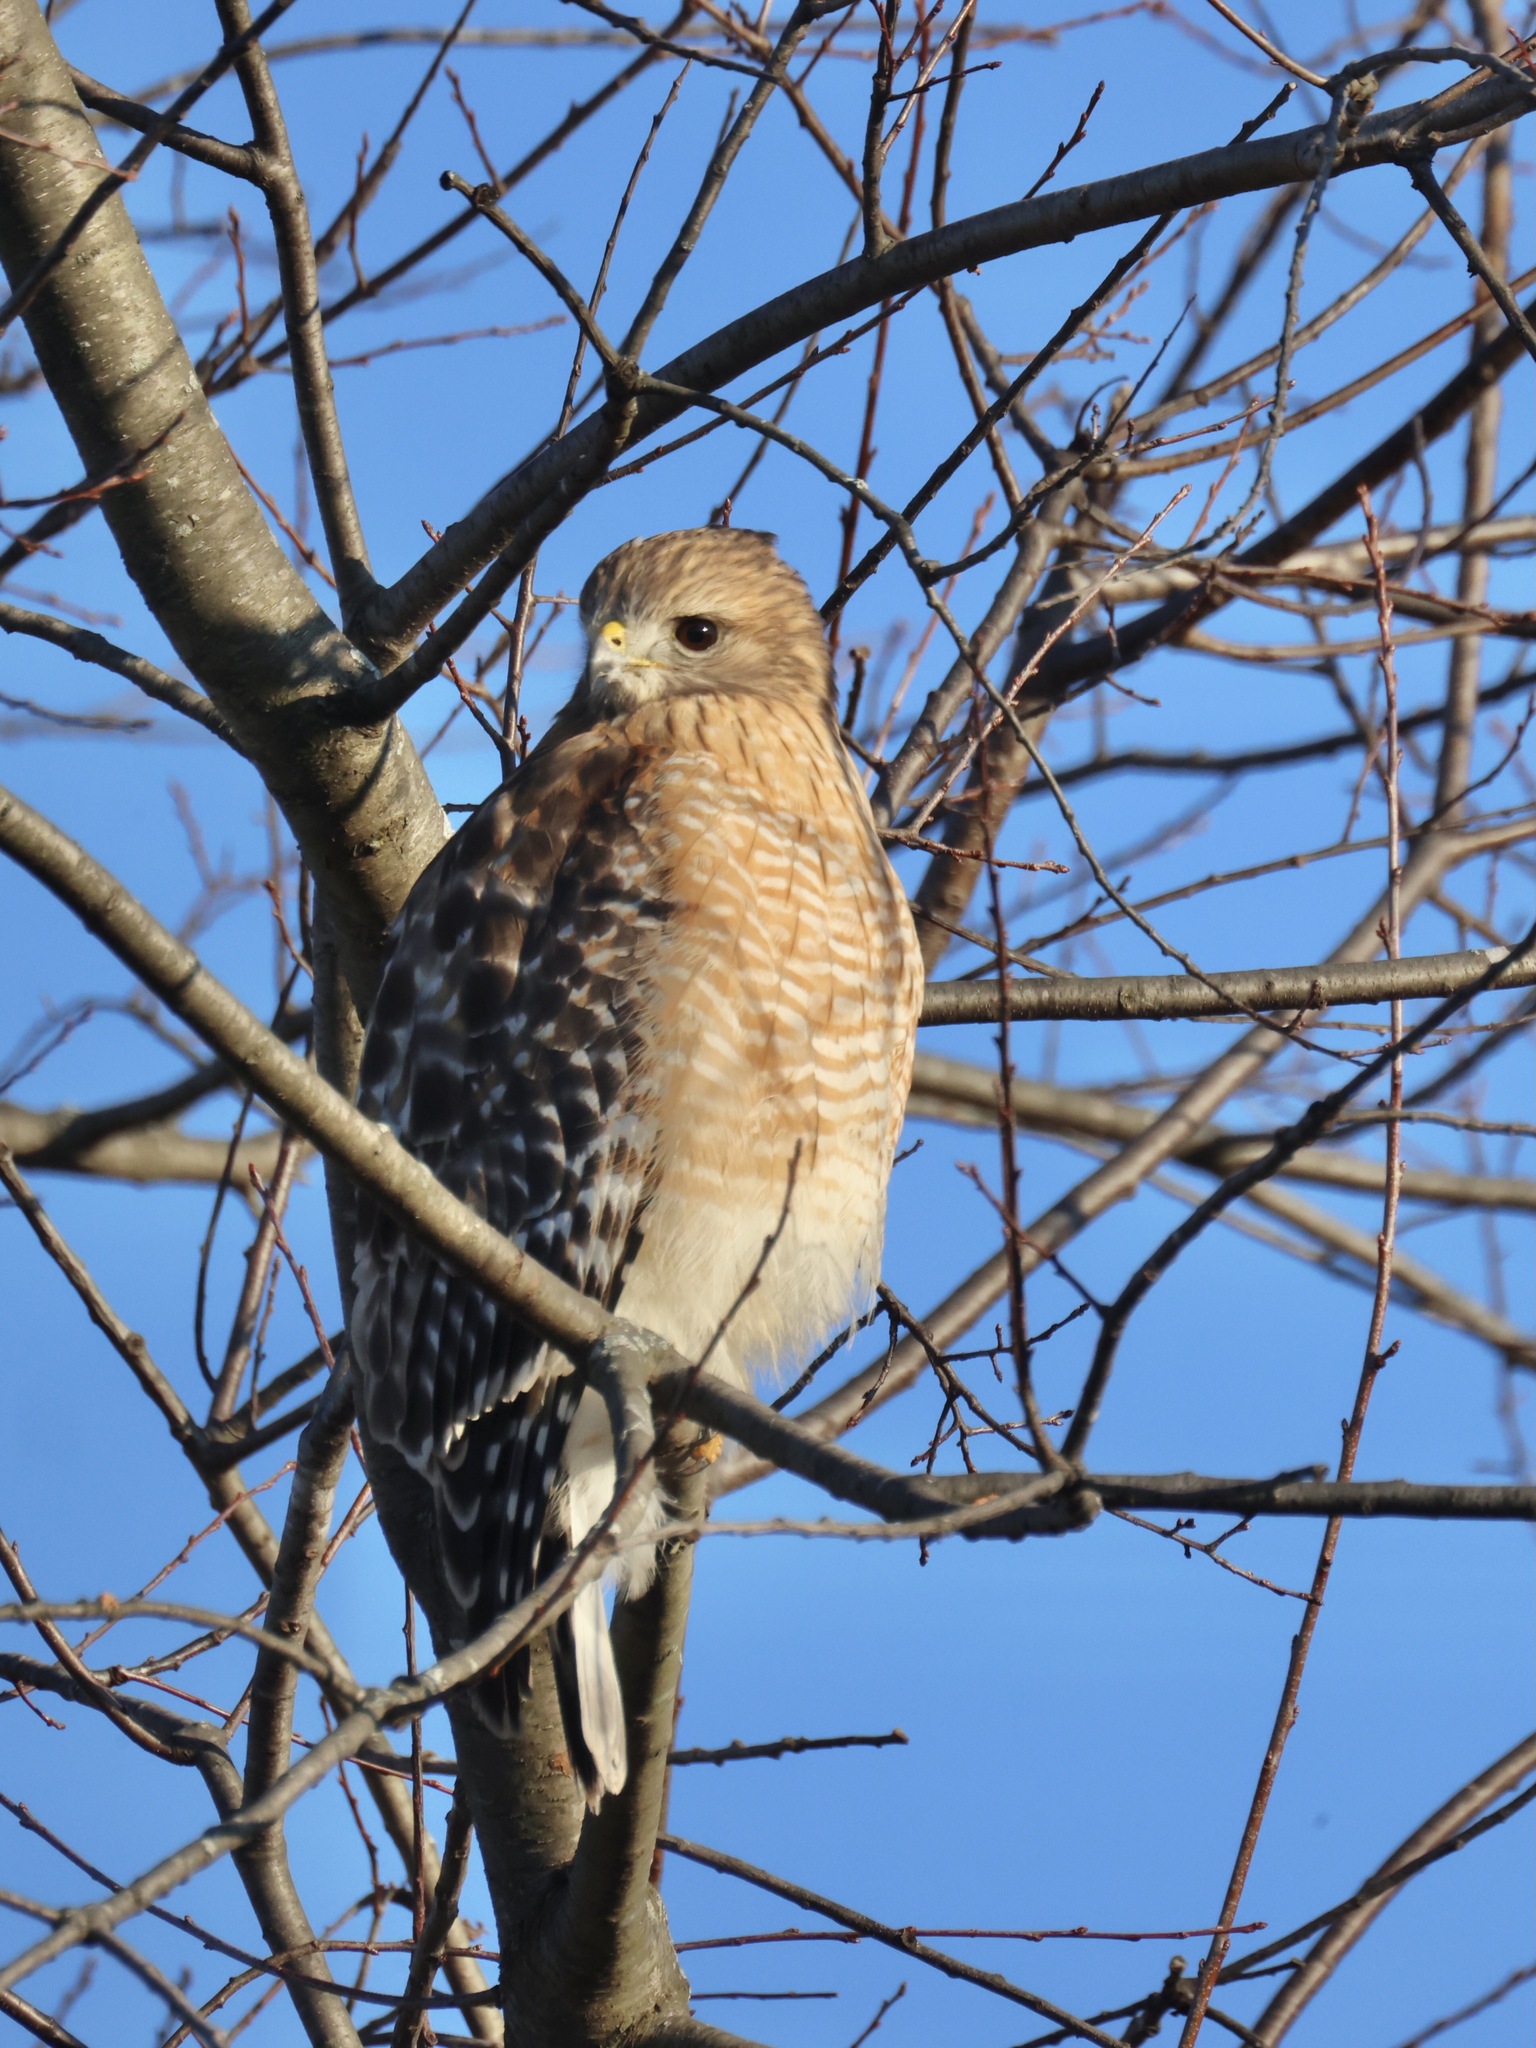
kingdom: Animalia
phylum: Chordata
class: Aves
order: Accipitriformes
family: Accipitridae
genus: Buteo
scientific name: Buteo lineatus
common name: Red-shouldered hawk
